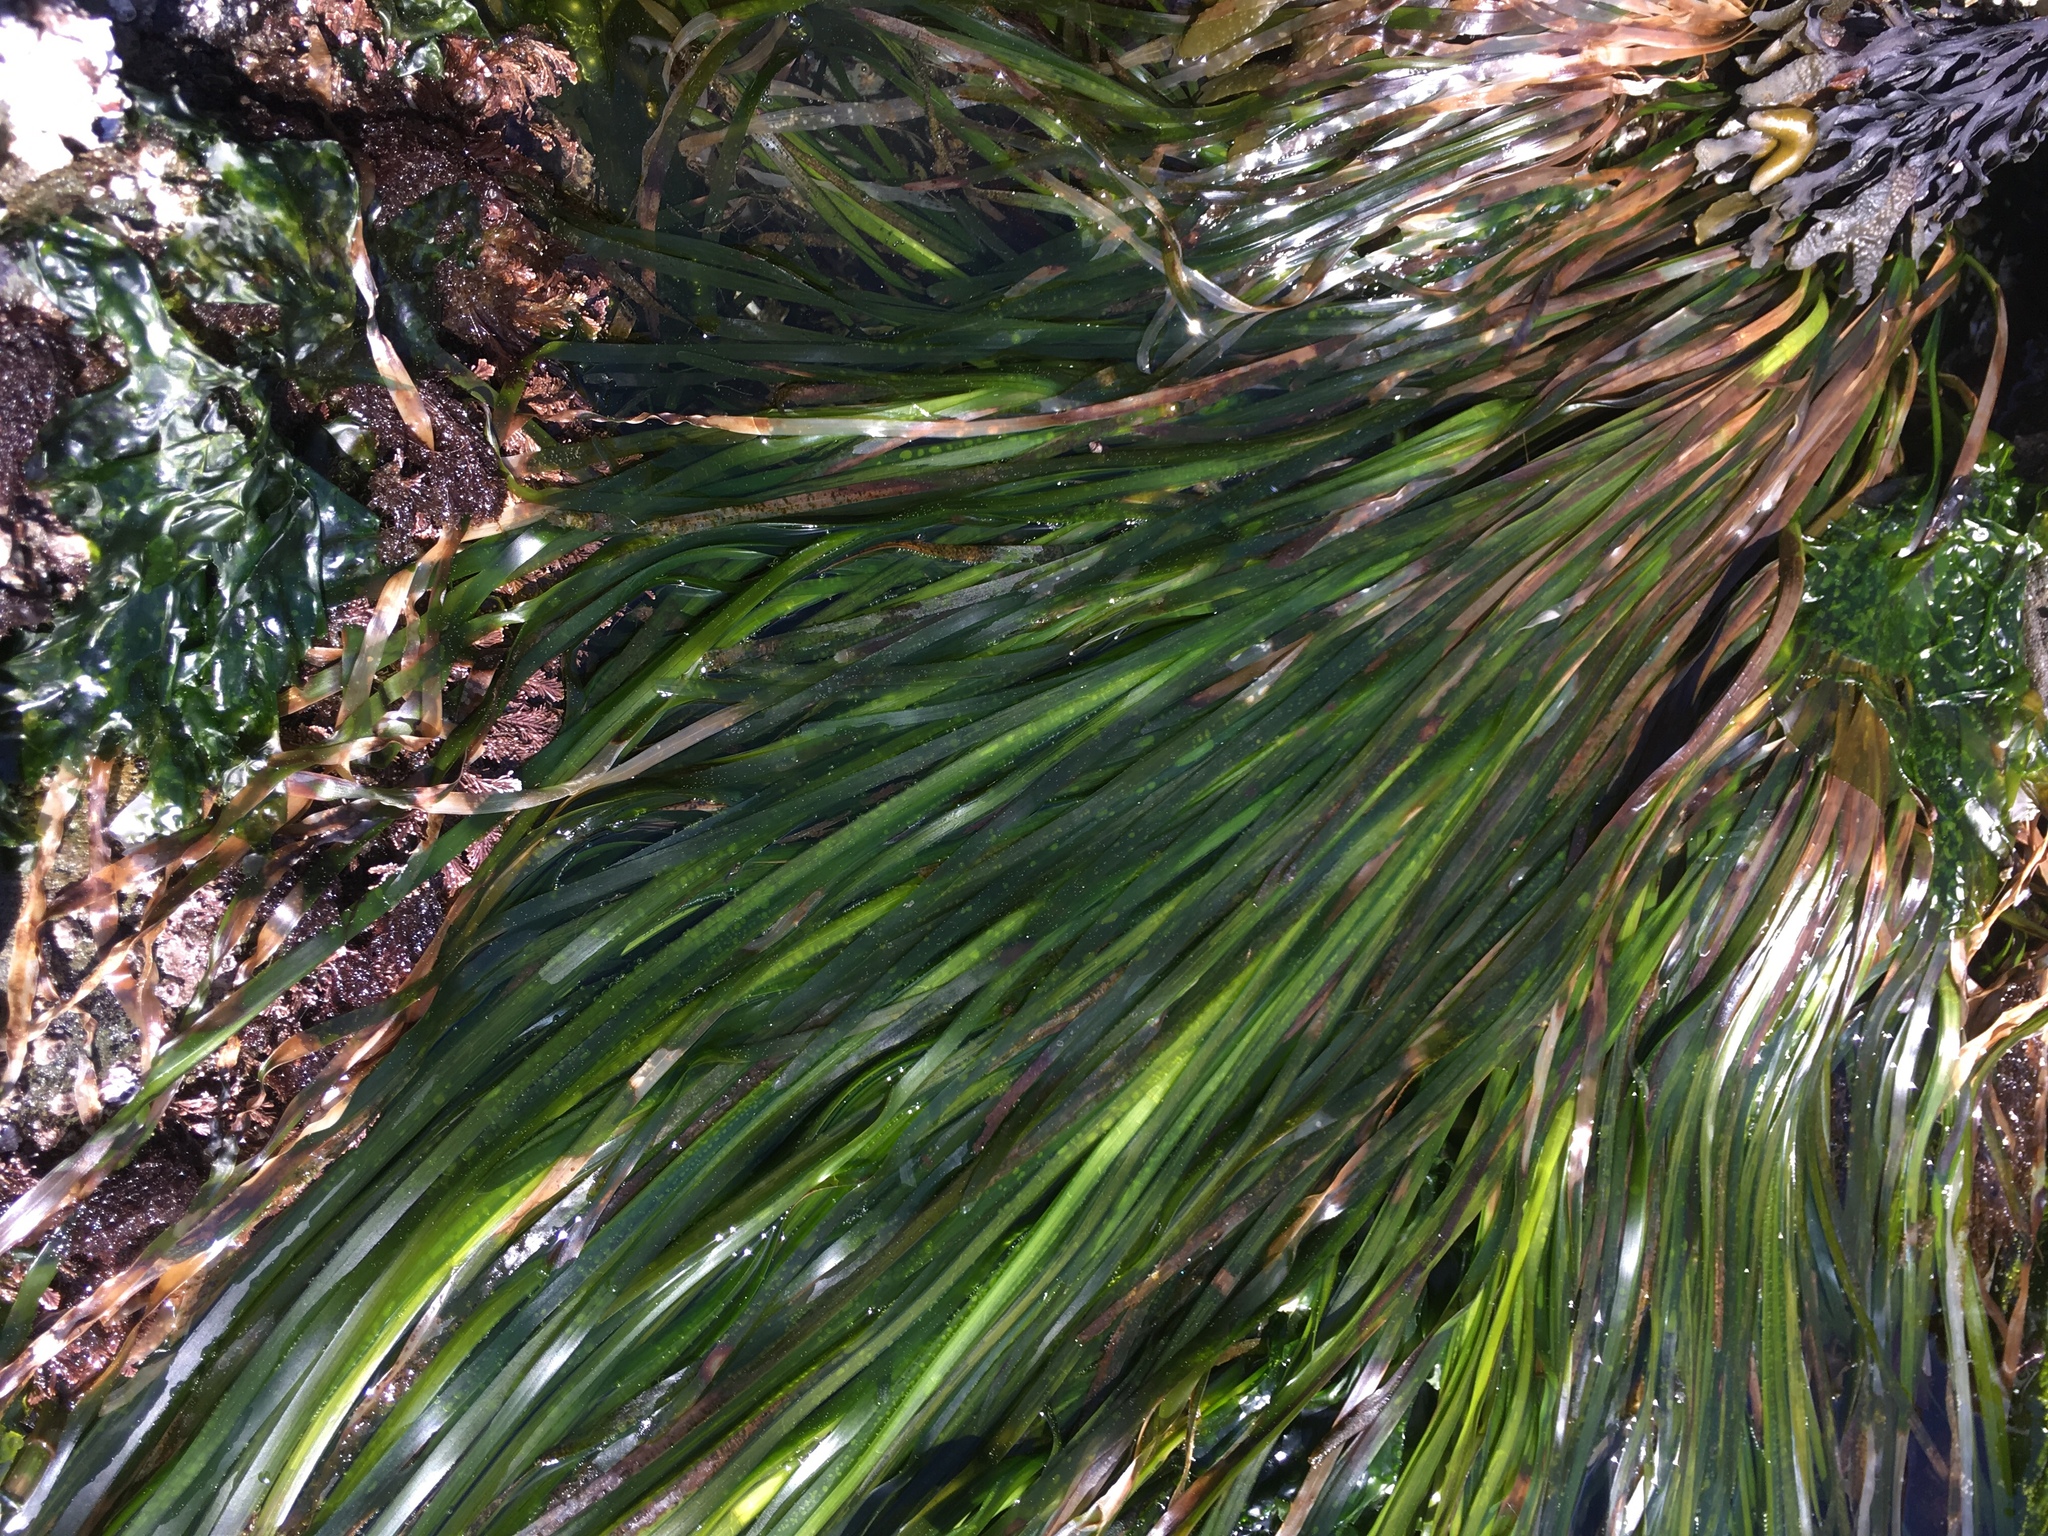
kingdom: Plantae
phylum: Tracheophyta
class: Liliopsida
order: Alismatales
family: Zosteraceae
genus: Phyllospadix
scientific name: Phyllospadix scouleri
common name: Species code: ps
